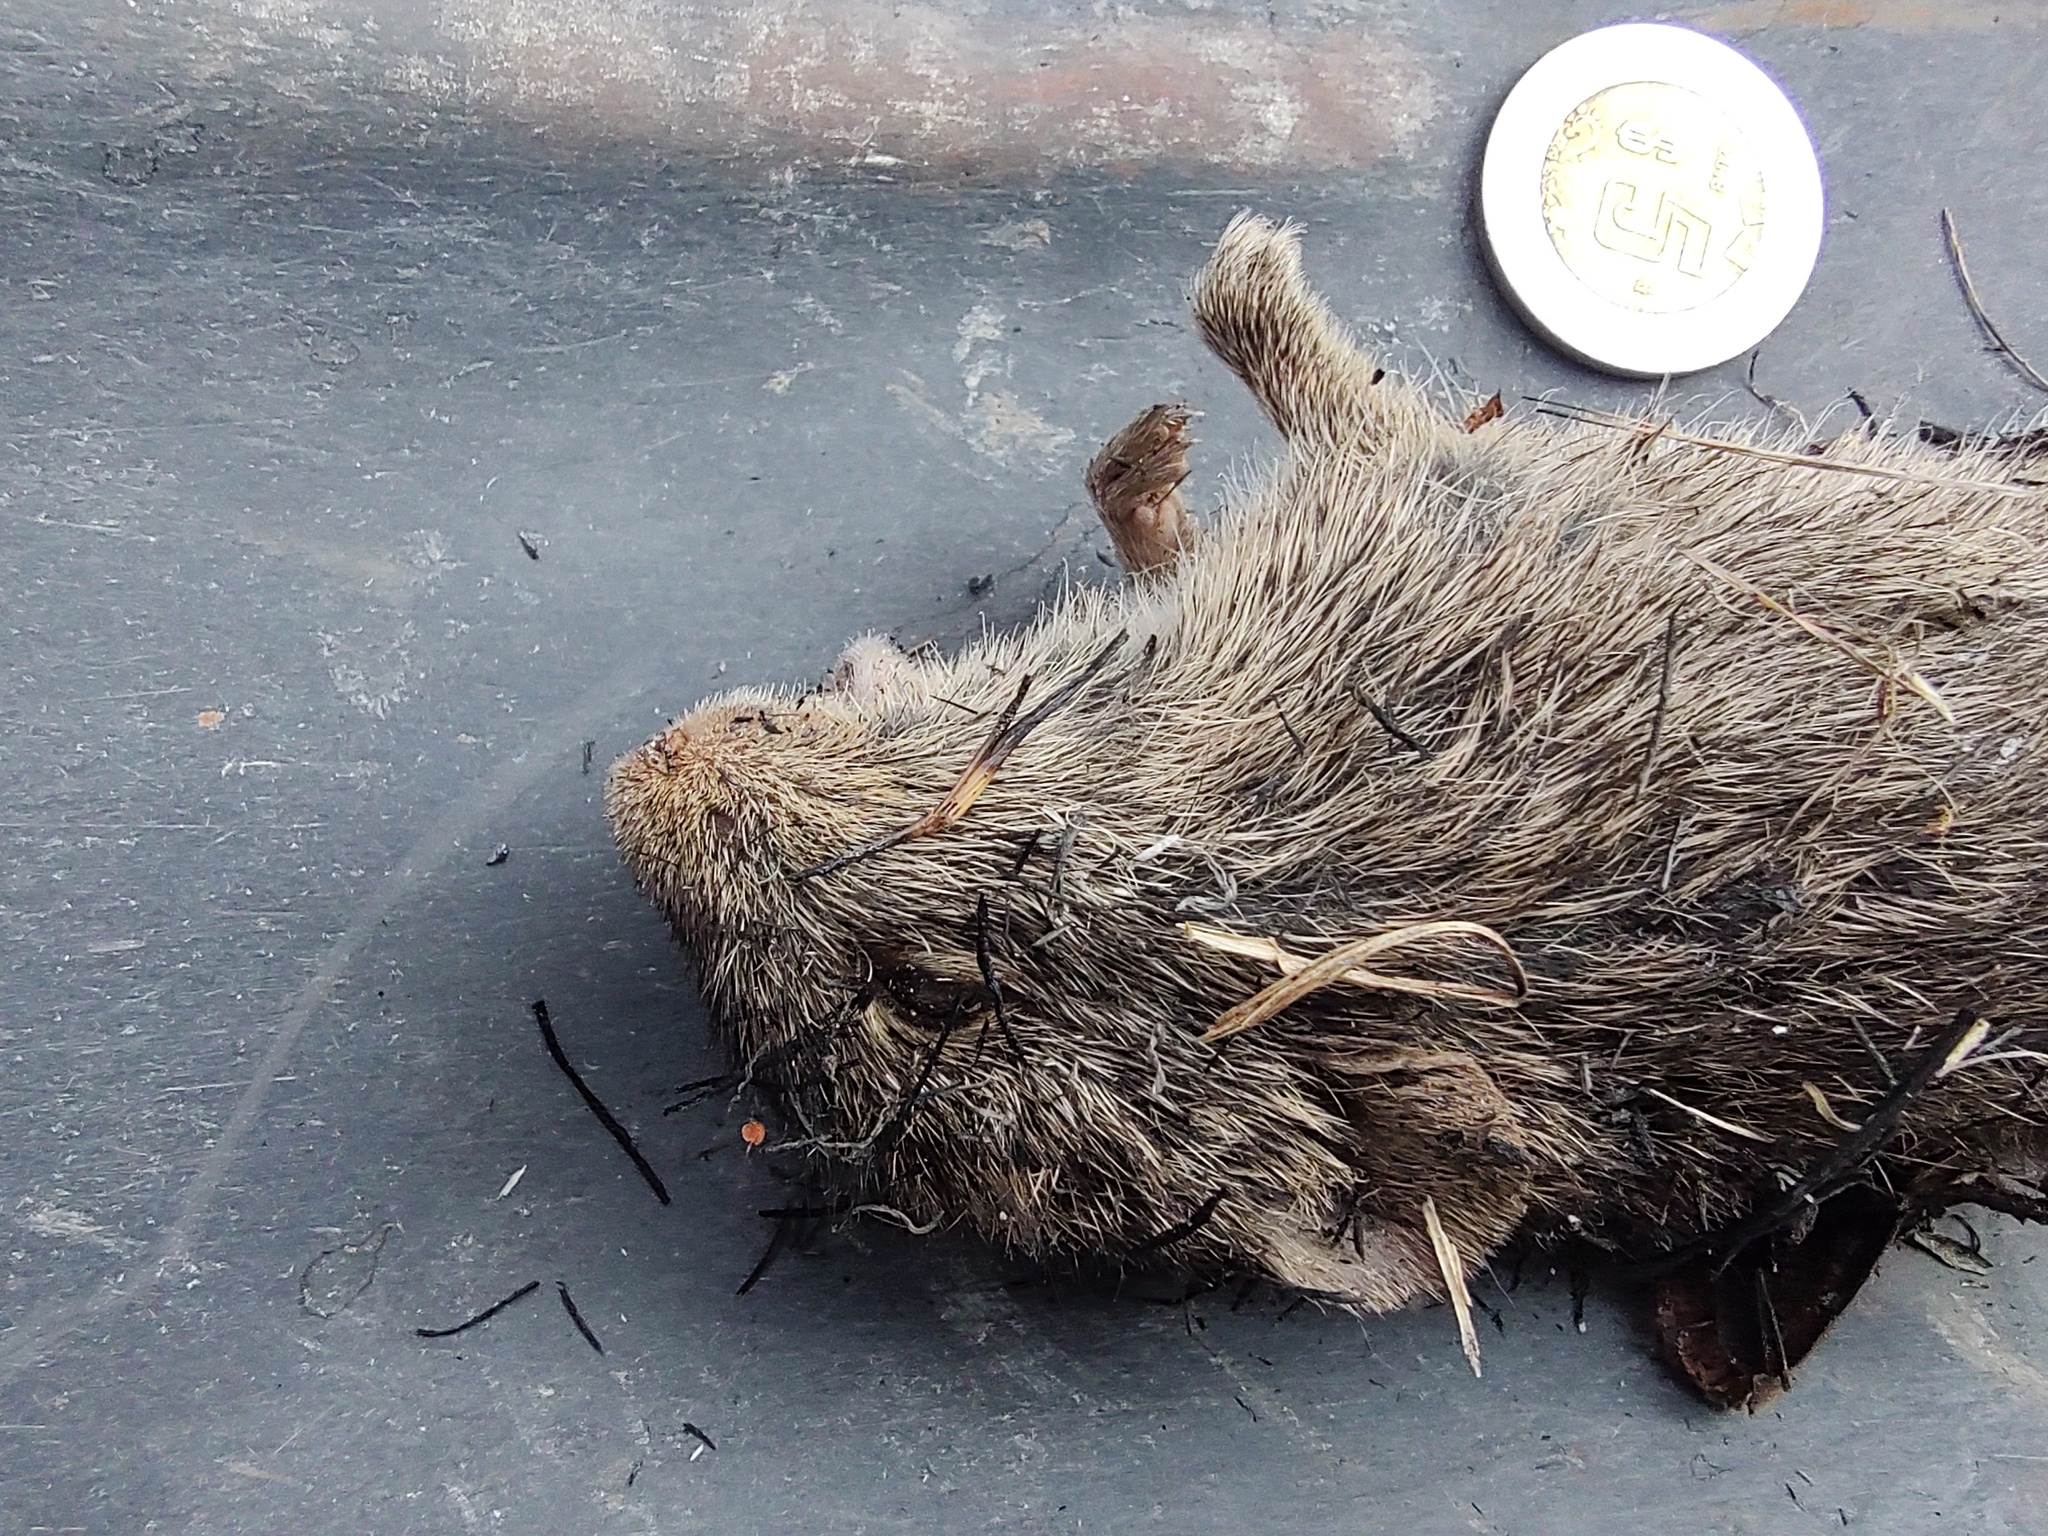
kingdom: Animalia
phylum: Chordata
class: Mammalia
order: Rodentia
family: Cricetidae
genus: Sigmodon
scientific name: Sigmodon leucotis
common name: White-eared cotton rat
